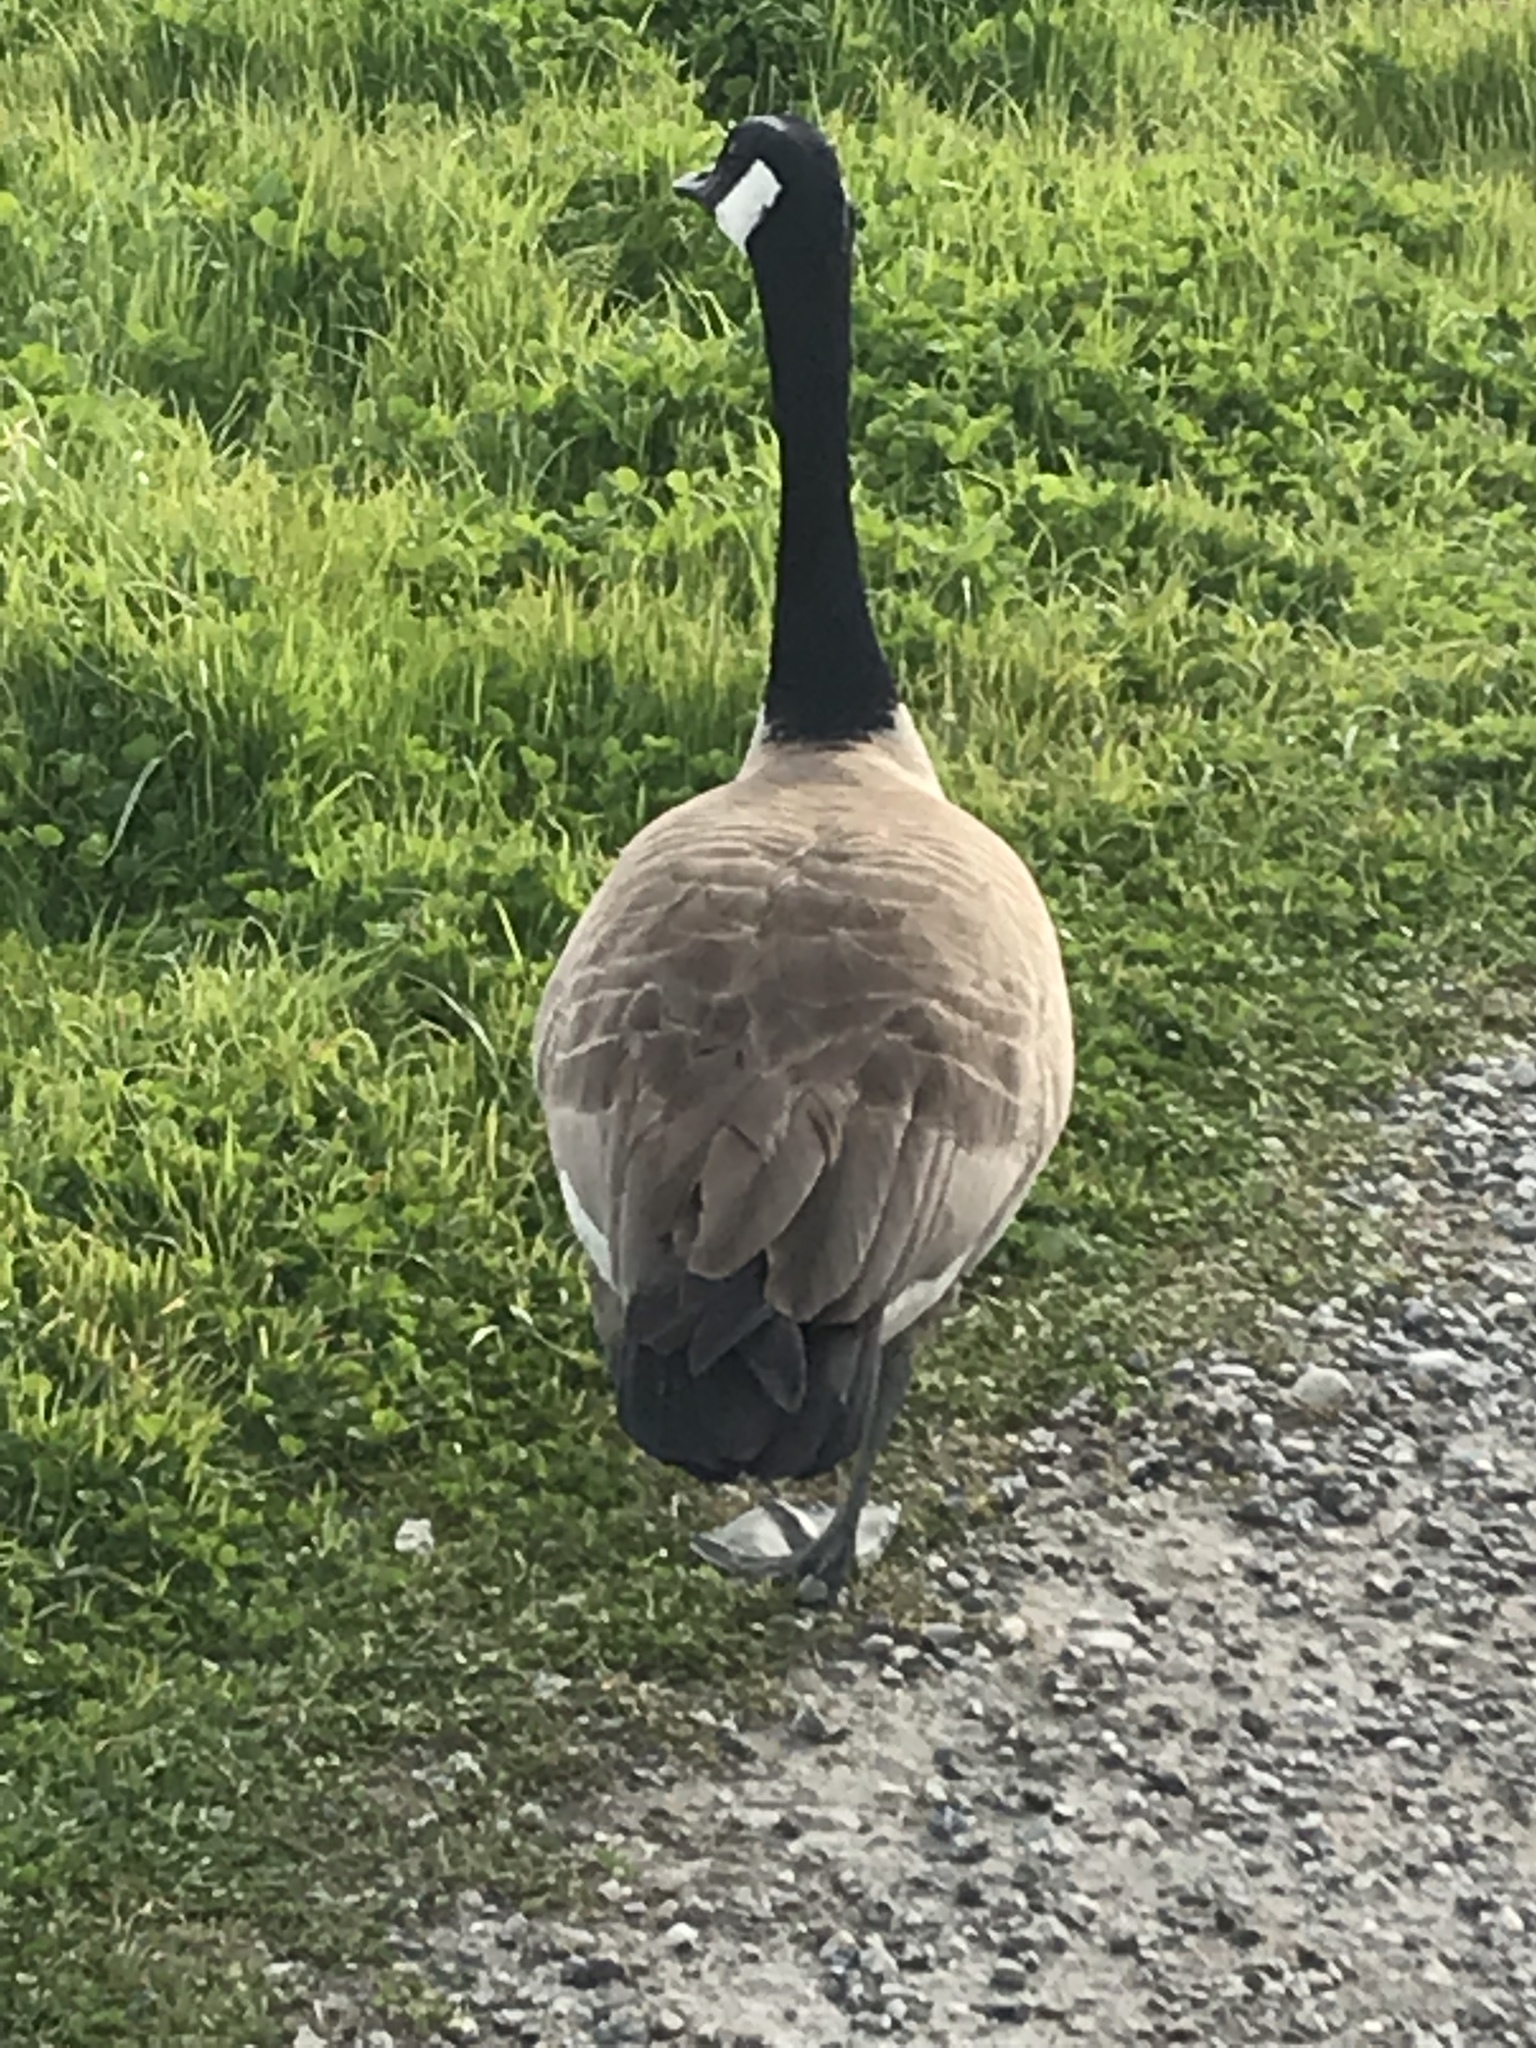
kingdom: Animalia
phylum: Chordata
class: Aves
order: Anseriformes
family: Anatidae
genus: Branta
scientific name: Branta canadensis
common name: Canada goose
